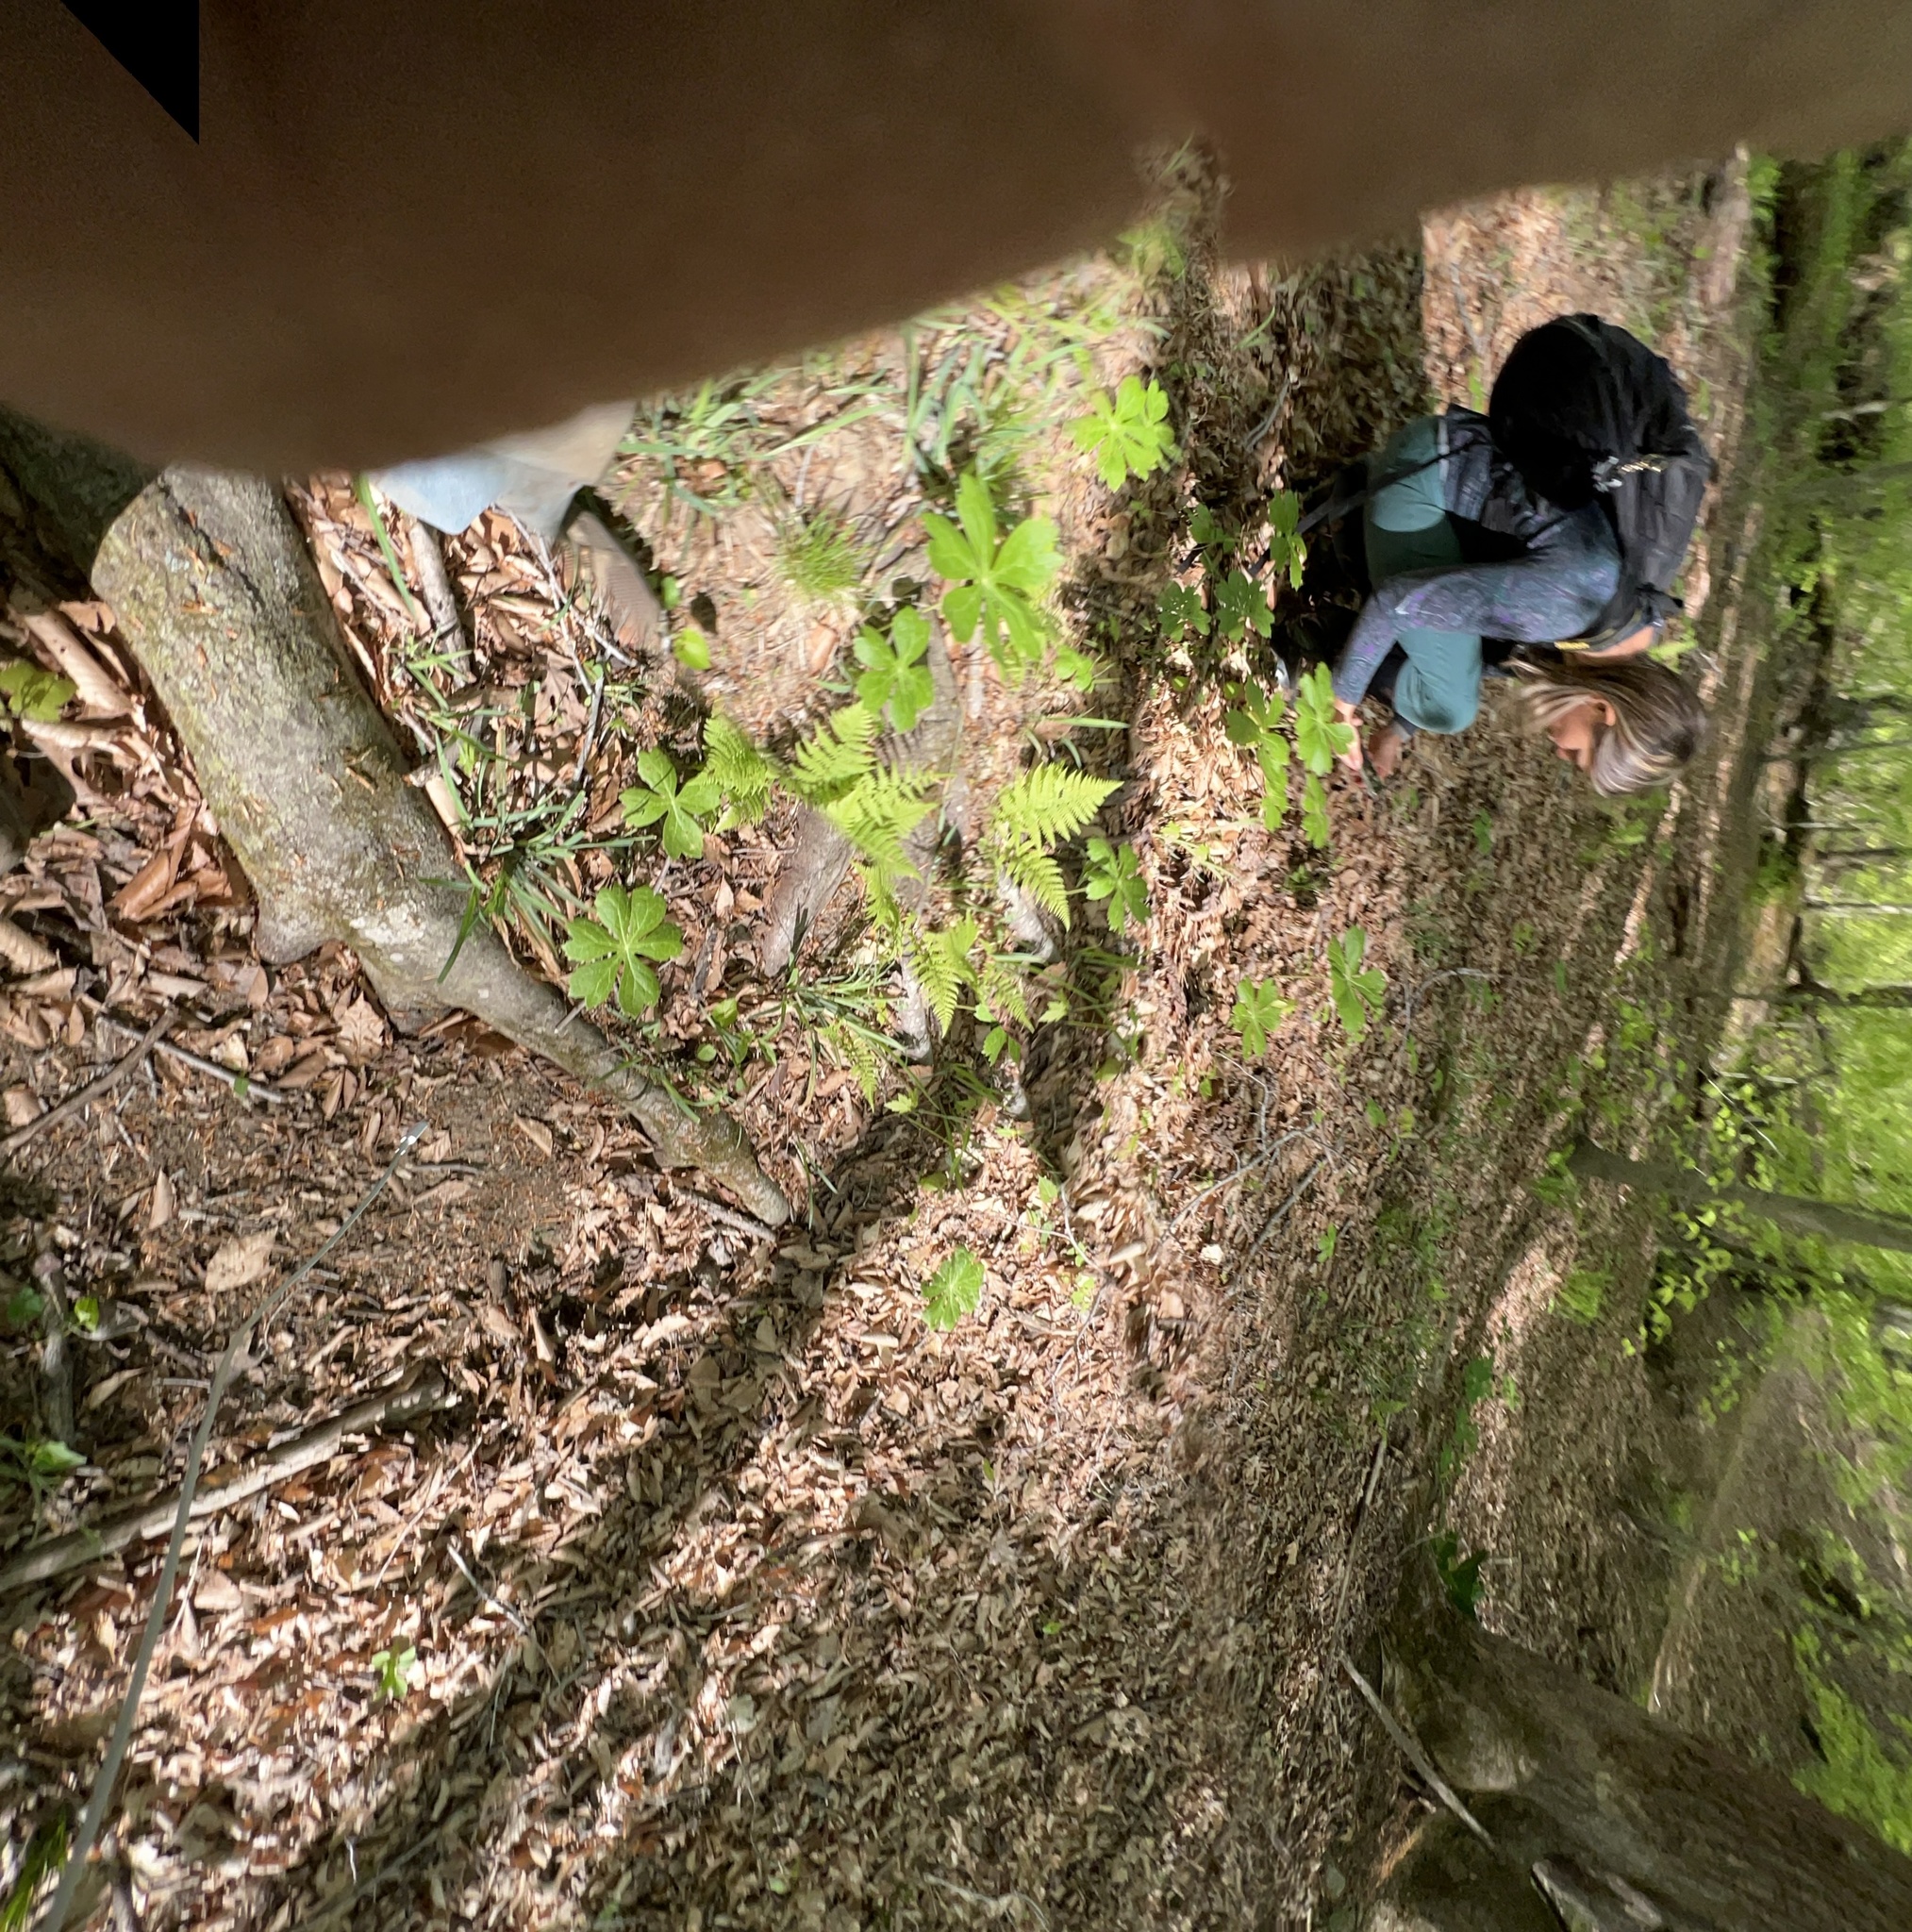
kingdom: Plantae
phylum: Tracheophyta
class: Polypodiopsida
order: Polypodiales
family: Thelypteridaceae
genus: Amauropelta
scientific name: Amauropelta noveboracensis
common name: New york fern
